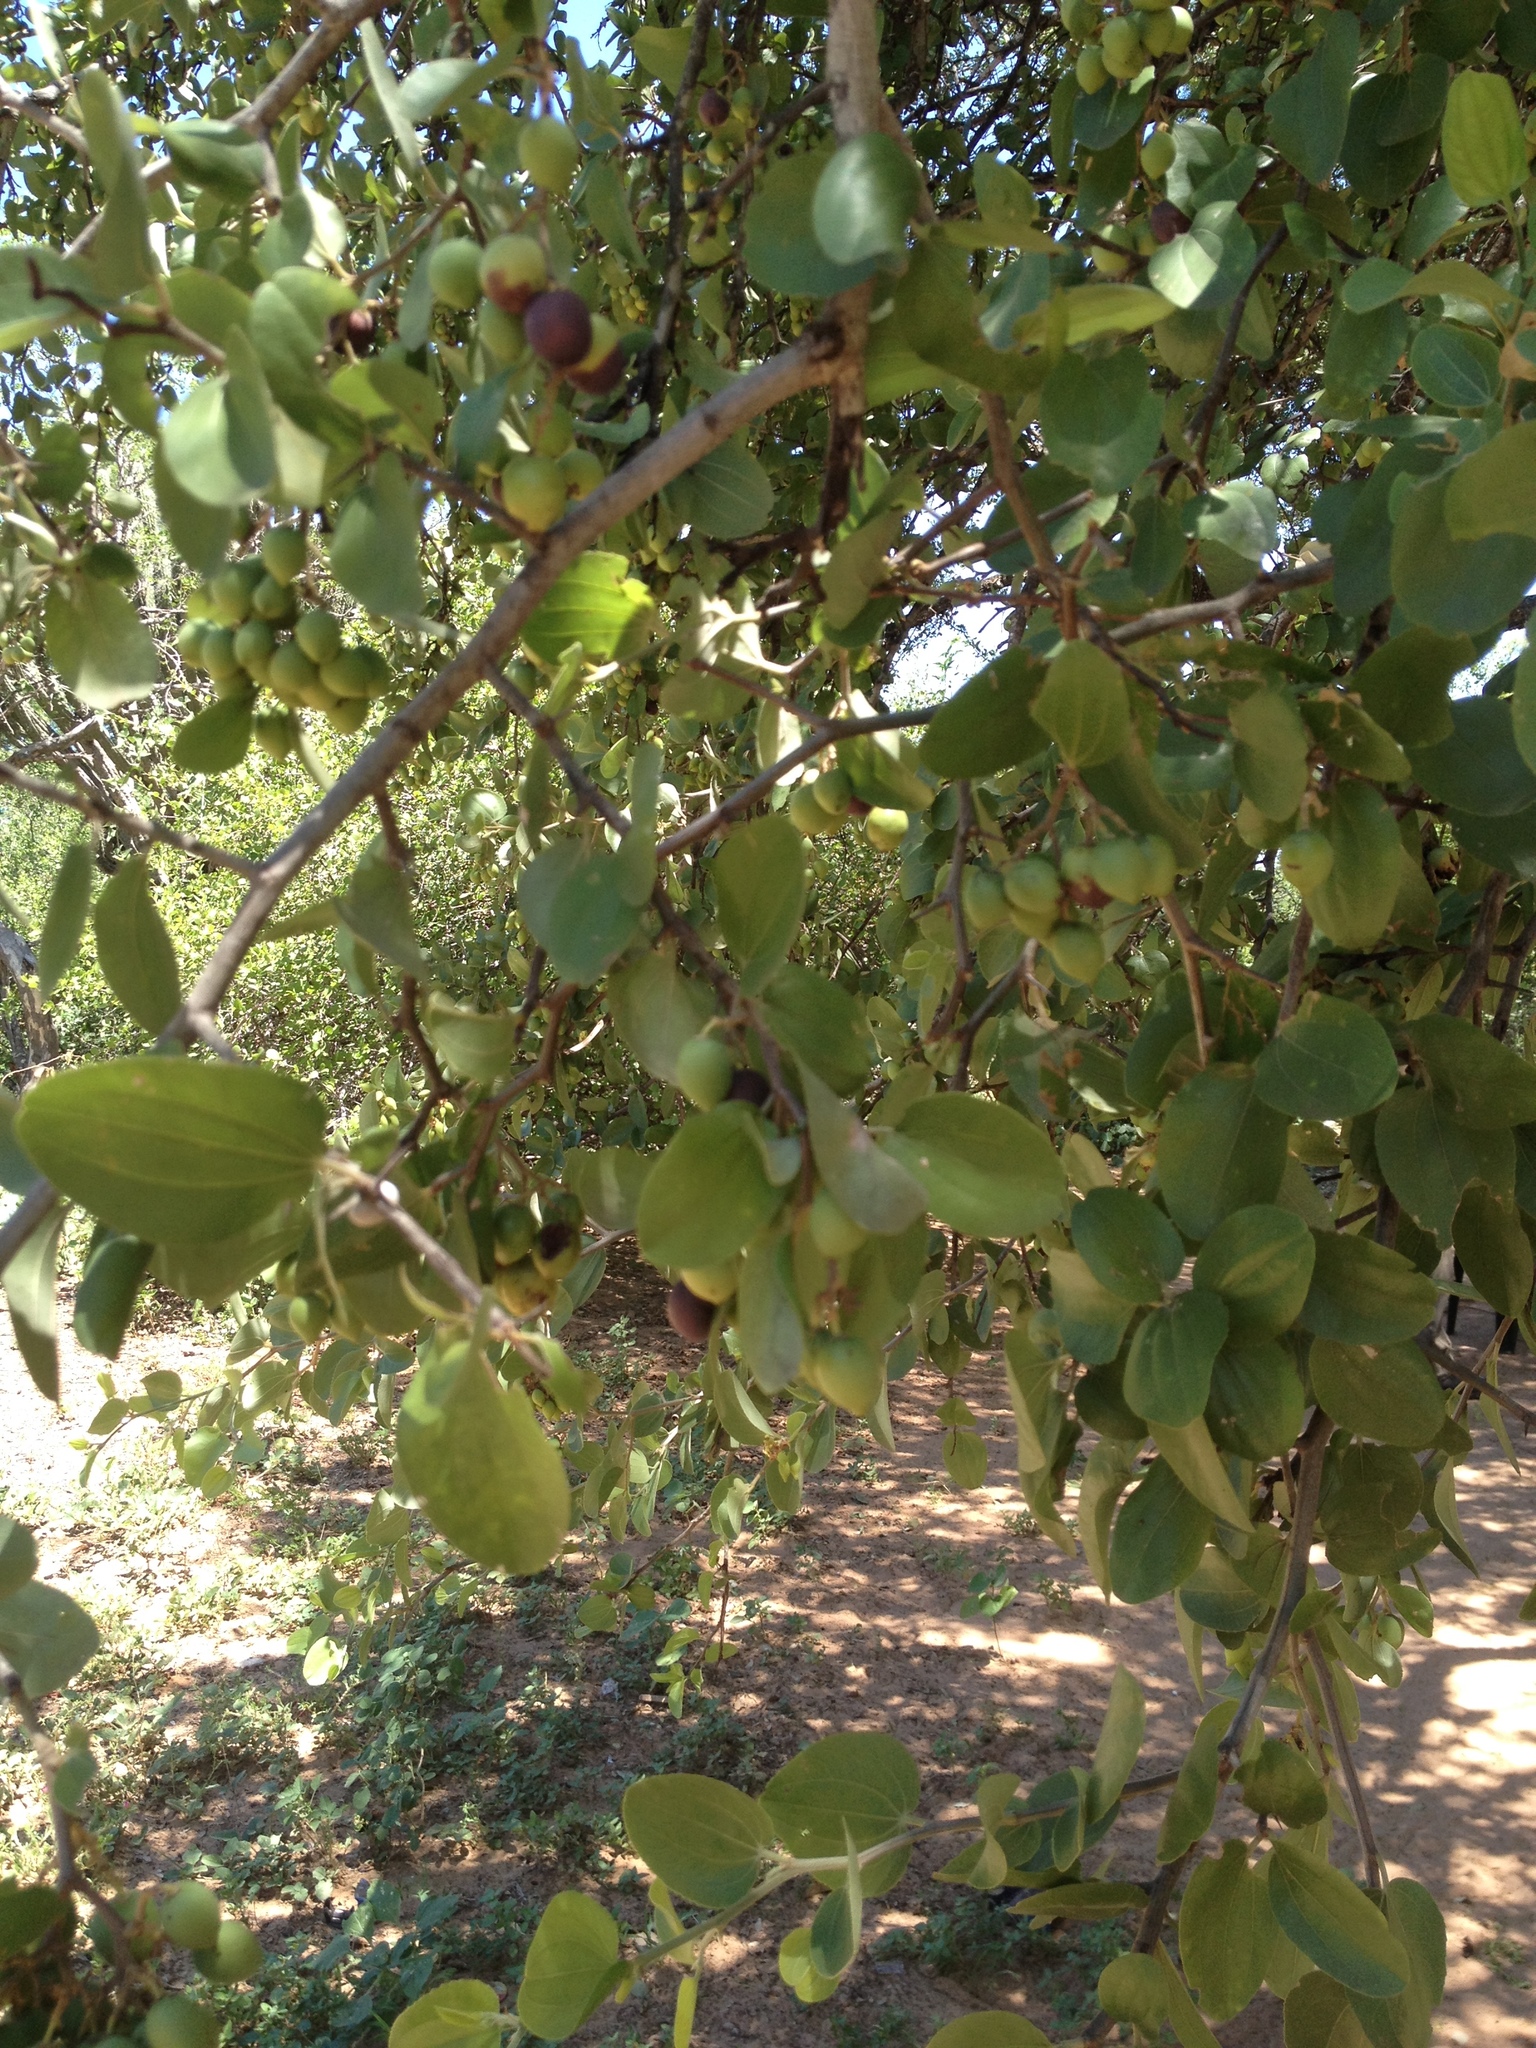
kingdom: Plantae
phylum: Tracheophyta
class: Magnoliopsida
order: Rosales
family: Rhamnaceae
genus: Sarcomphalus
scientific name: Sarcomphalus mistol
